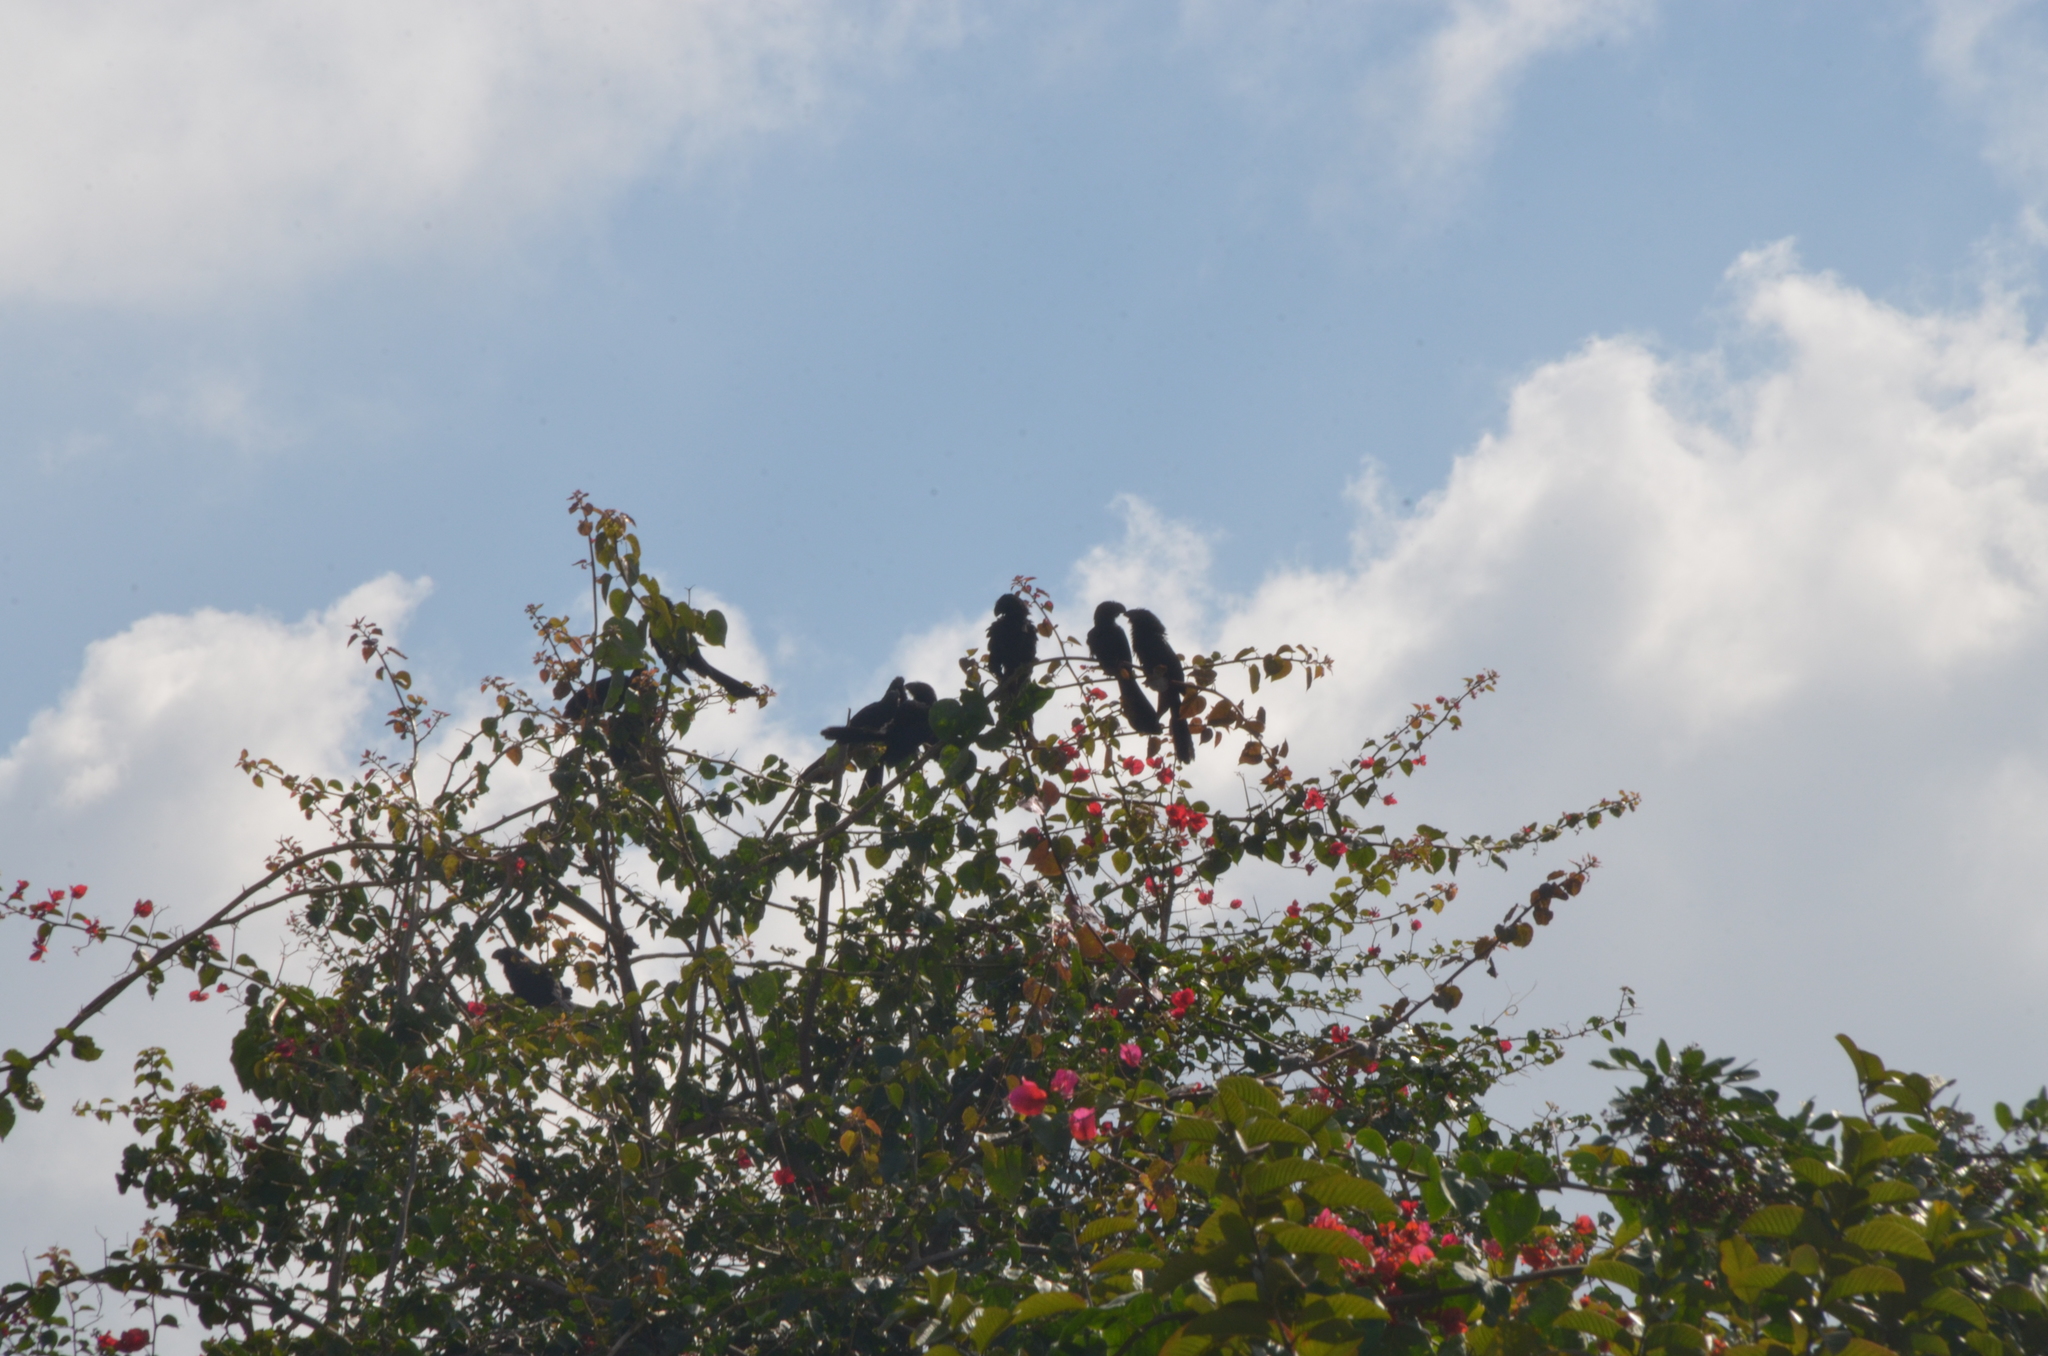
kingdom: Animalia
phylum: Chordata
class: Aves
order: Cuculiformes
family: Cuculidae
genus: Crotophaga
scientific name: Crotophaga ani
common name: Smooth-billed ani
